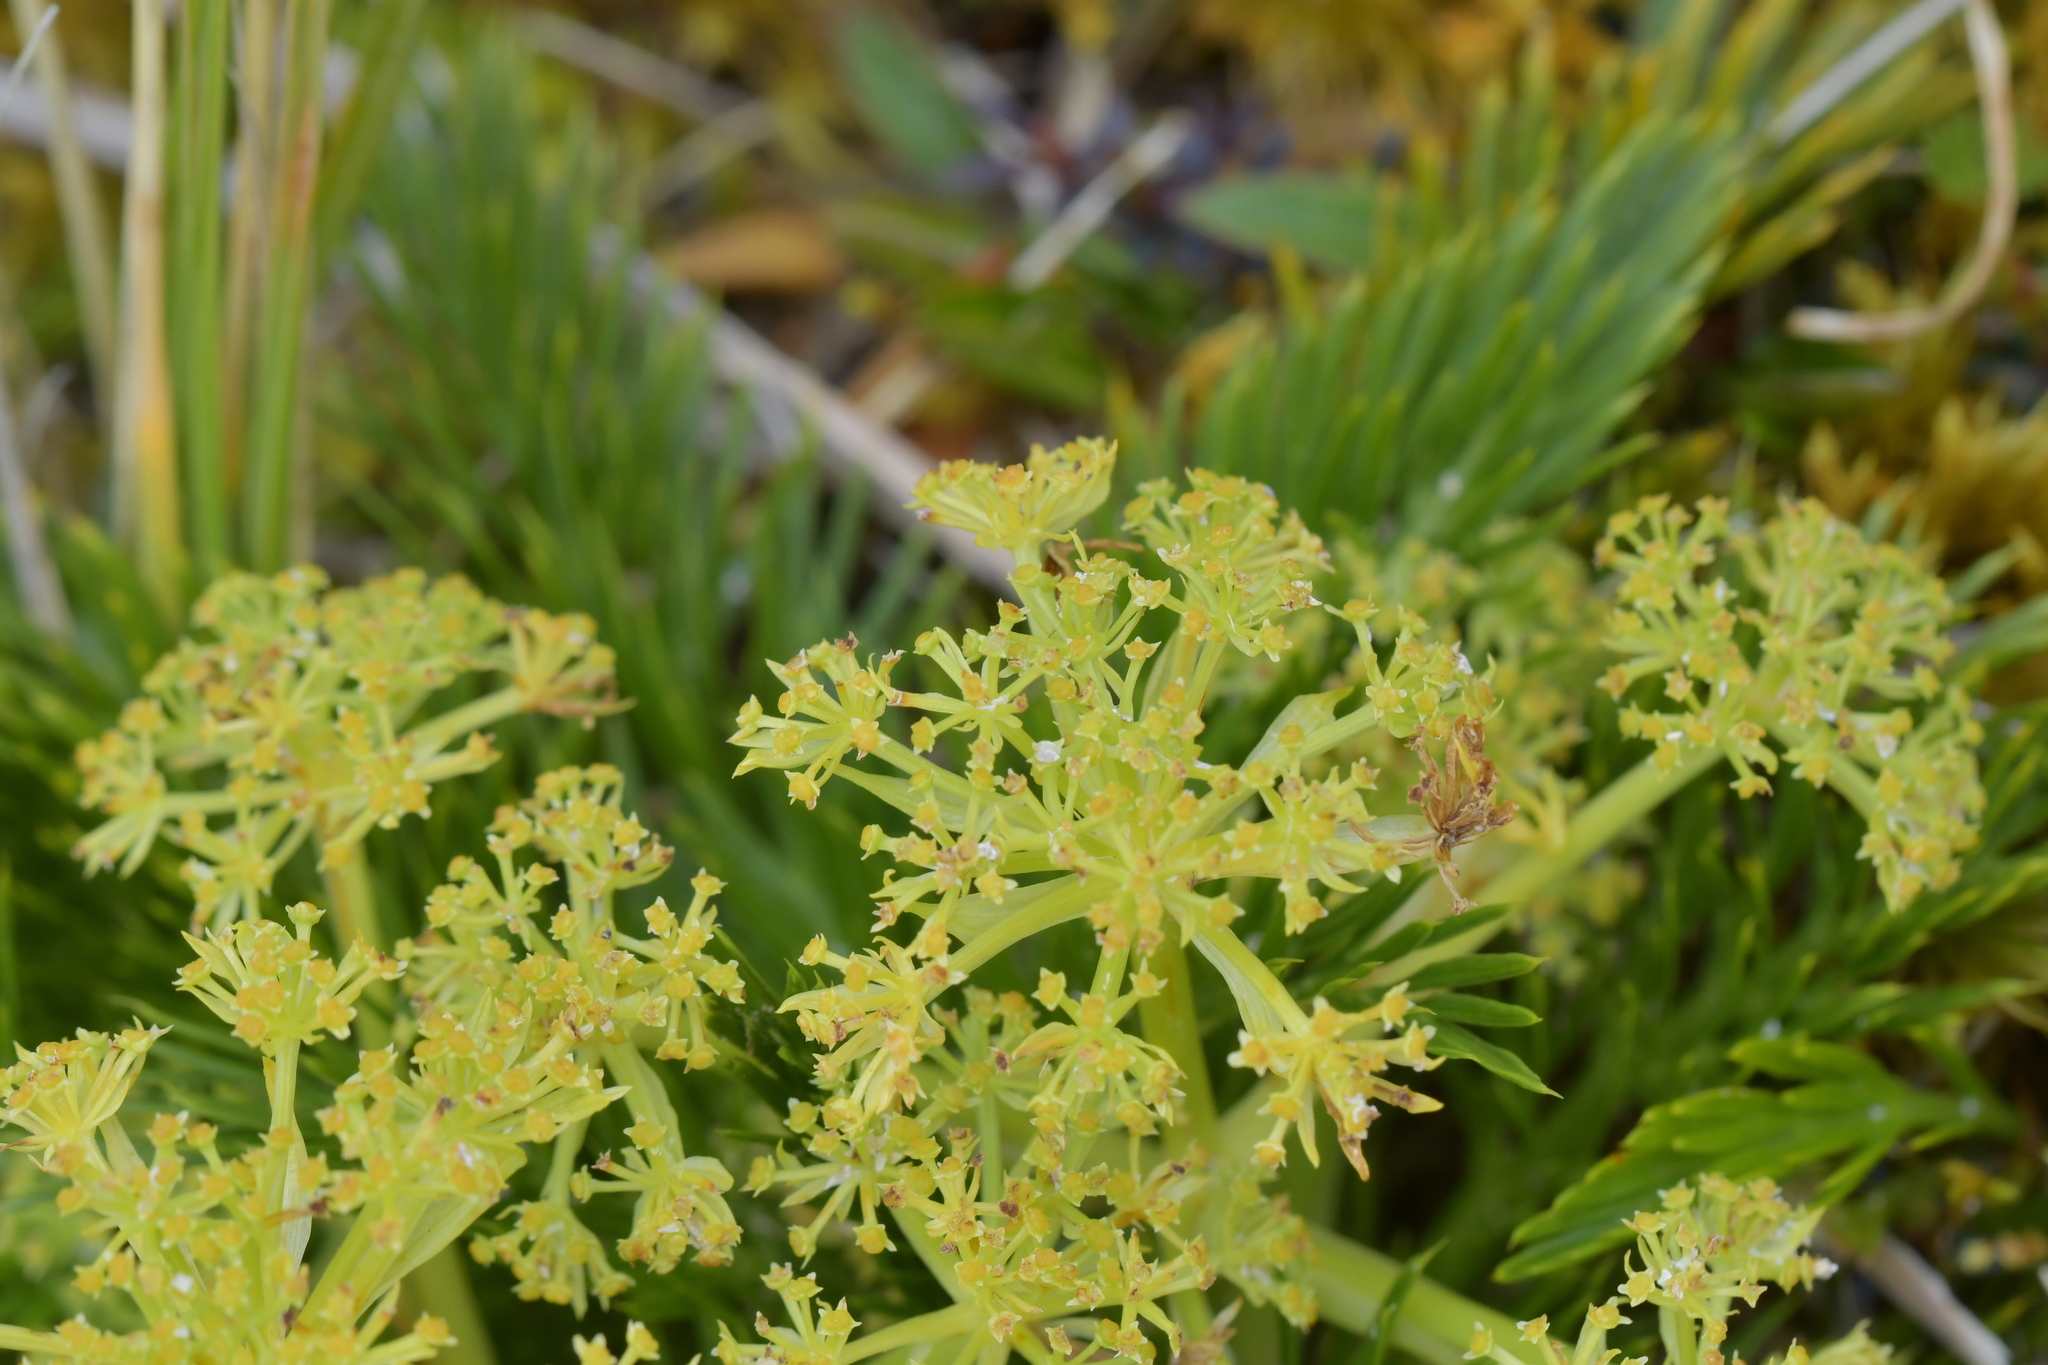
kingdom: Plantae
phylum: Tracheophyta
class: Magnoliopsida
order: Apiales
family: Apiaceae
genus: Aciphylla
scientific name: Aciphylla dissecta
